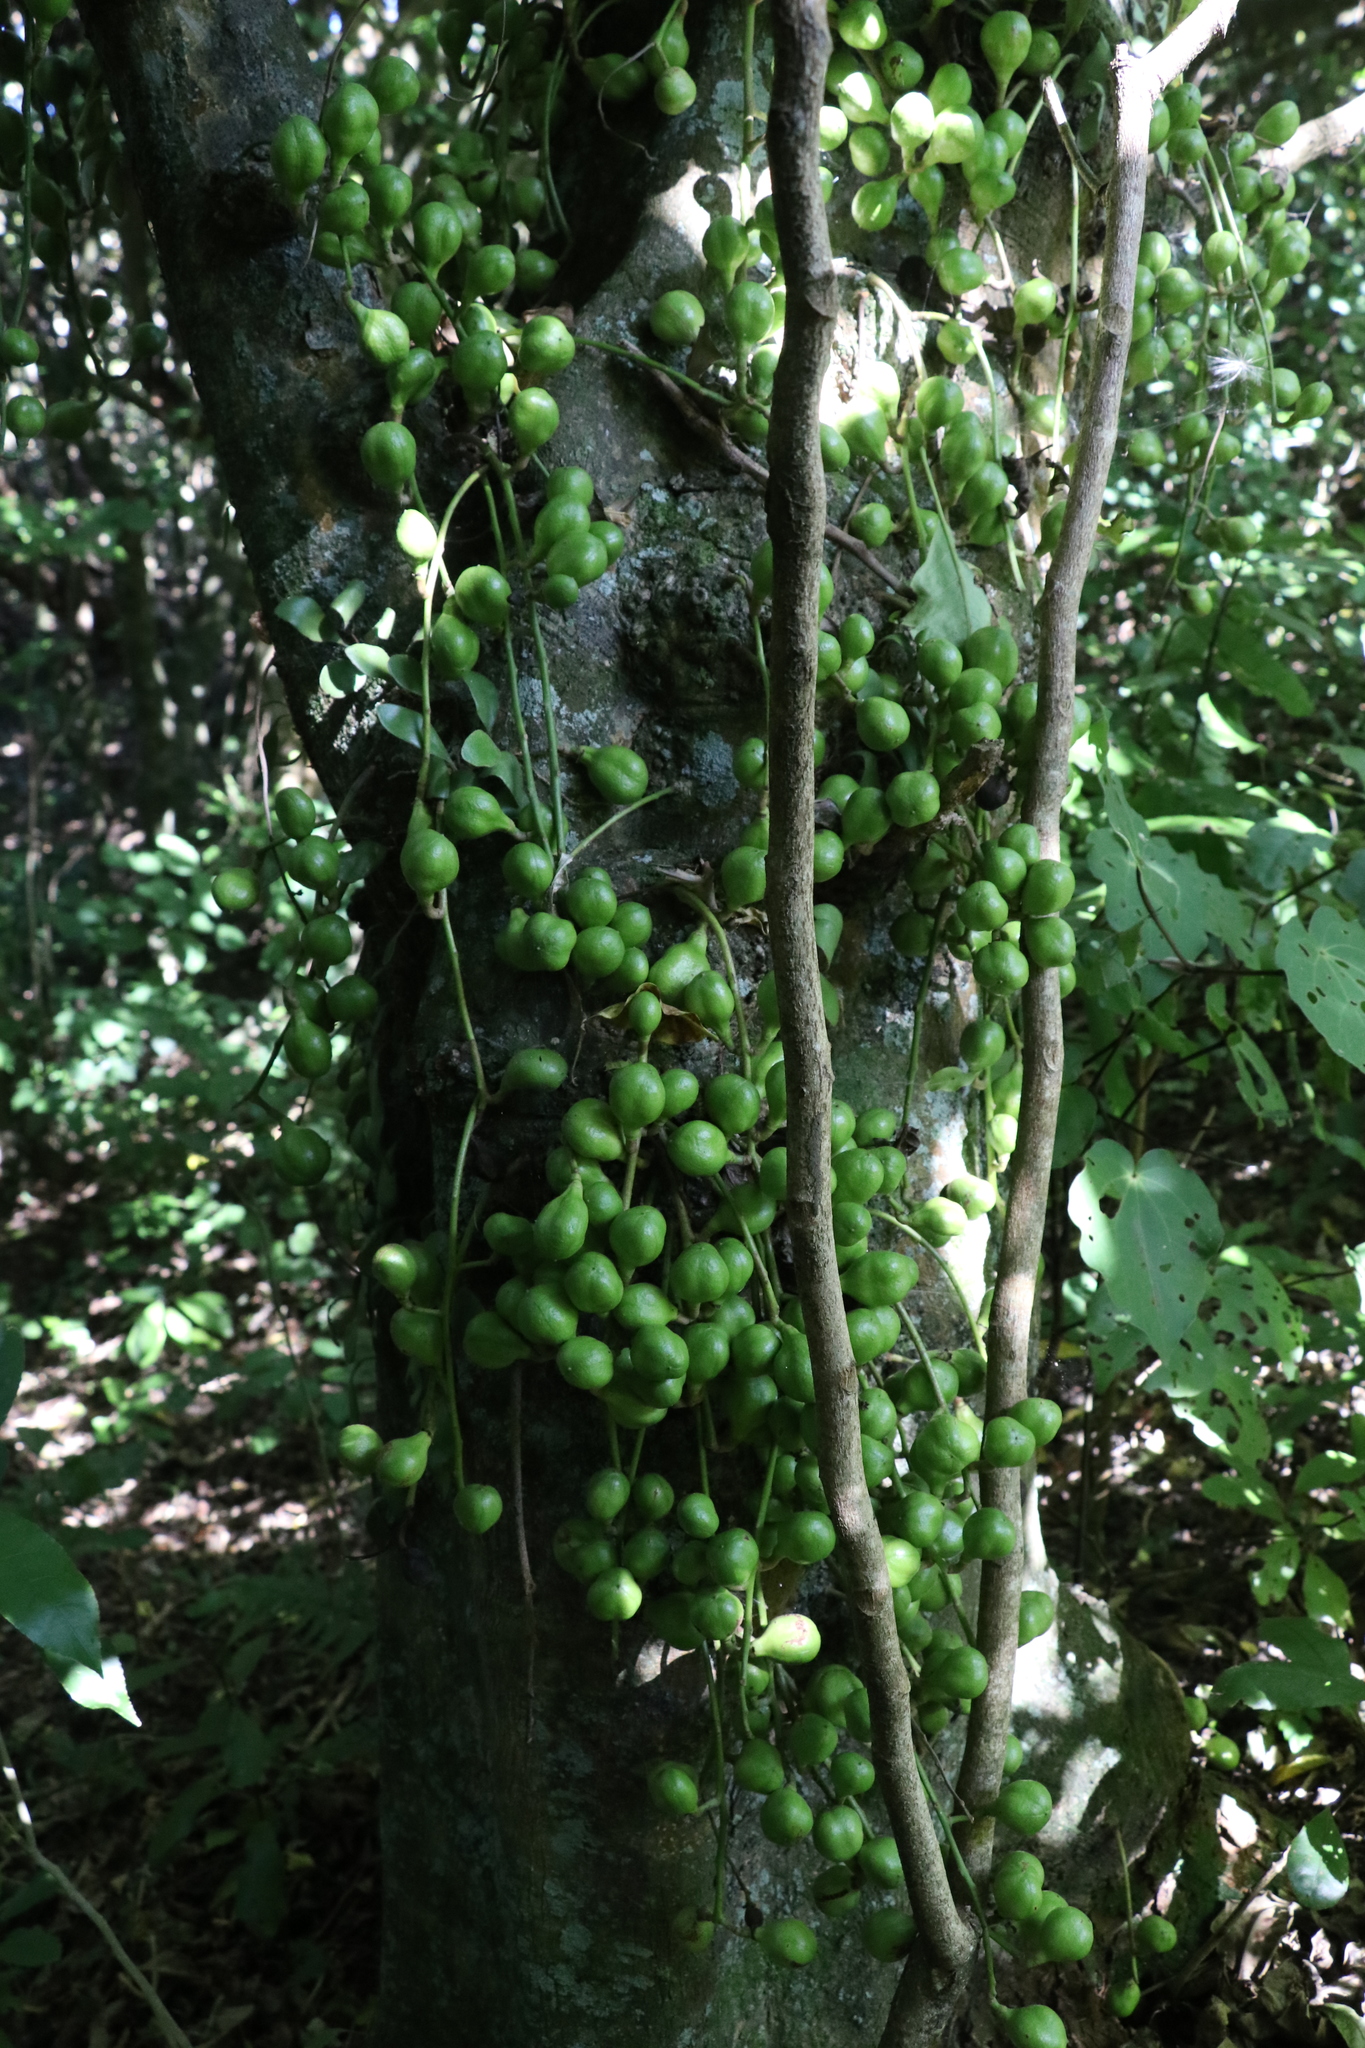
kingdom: Plantae
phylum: Tracheophyta
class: Magnoliopsida
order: Sapindales
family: Meliaceae
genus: Didymocheton
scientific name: Didymocheton spectabilis
